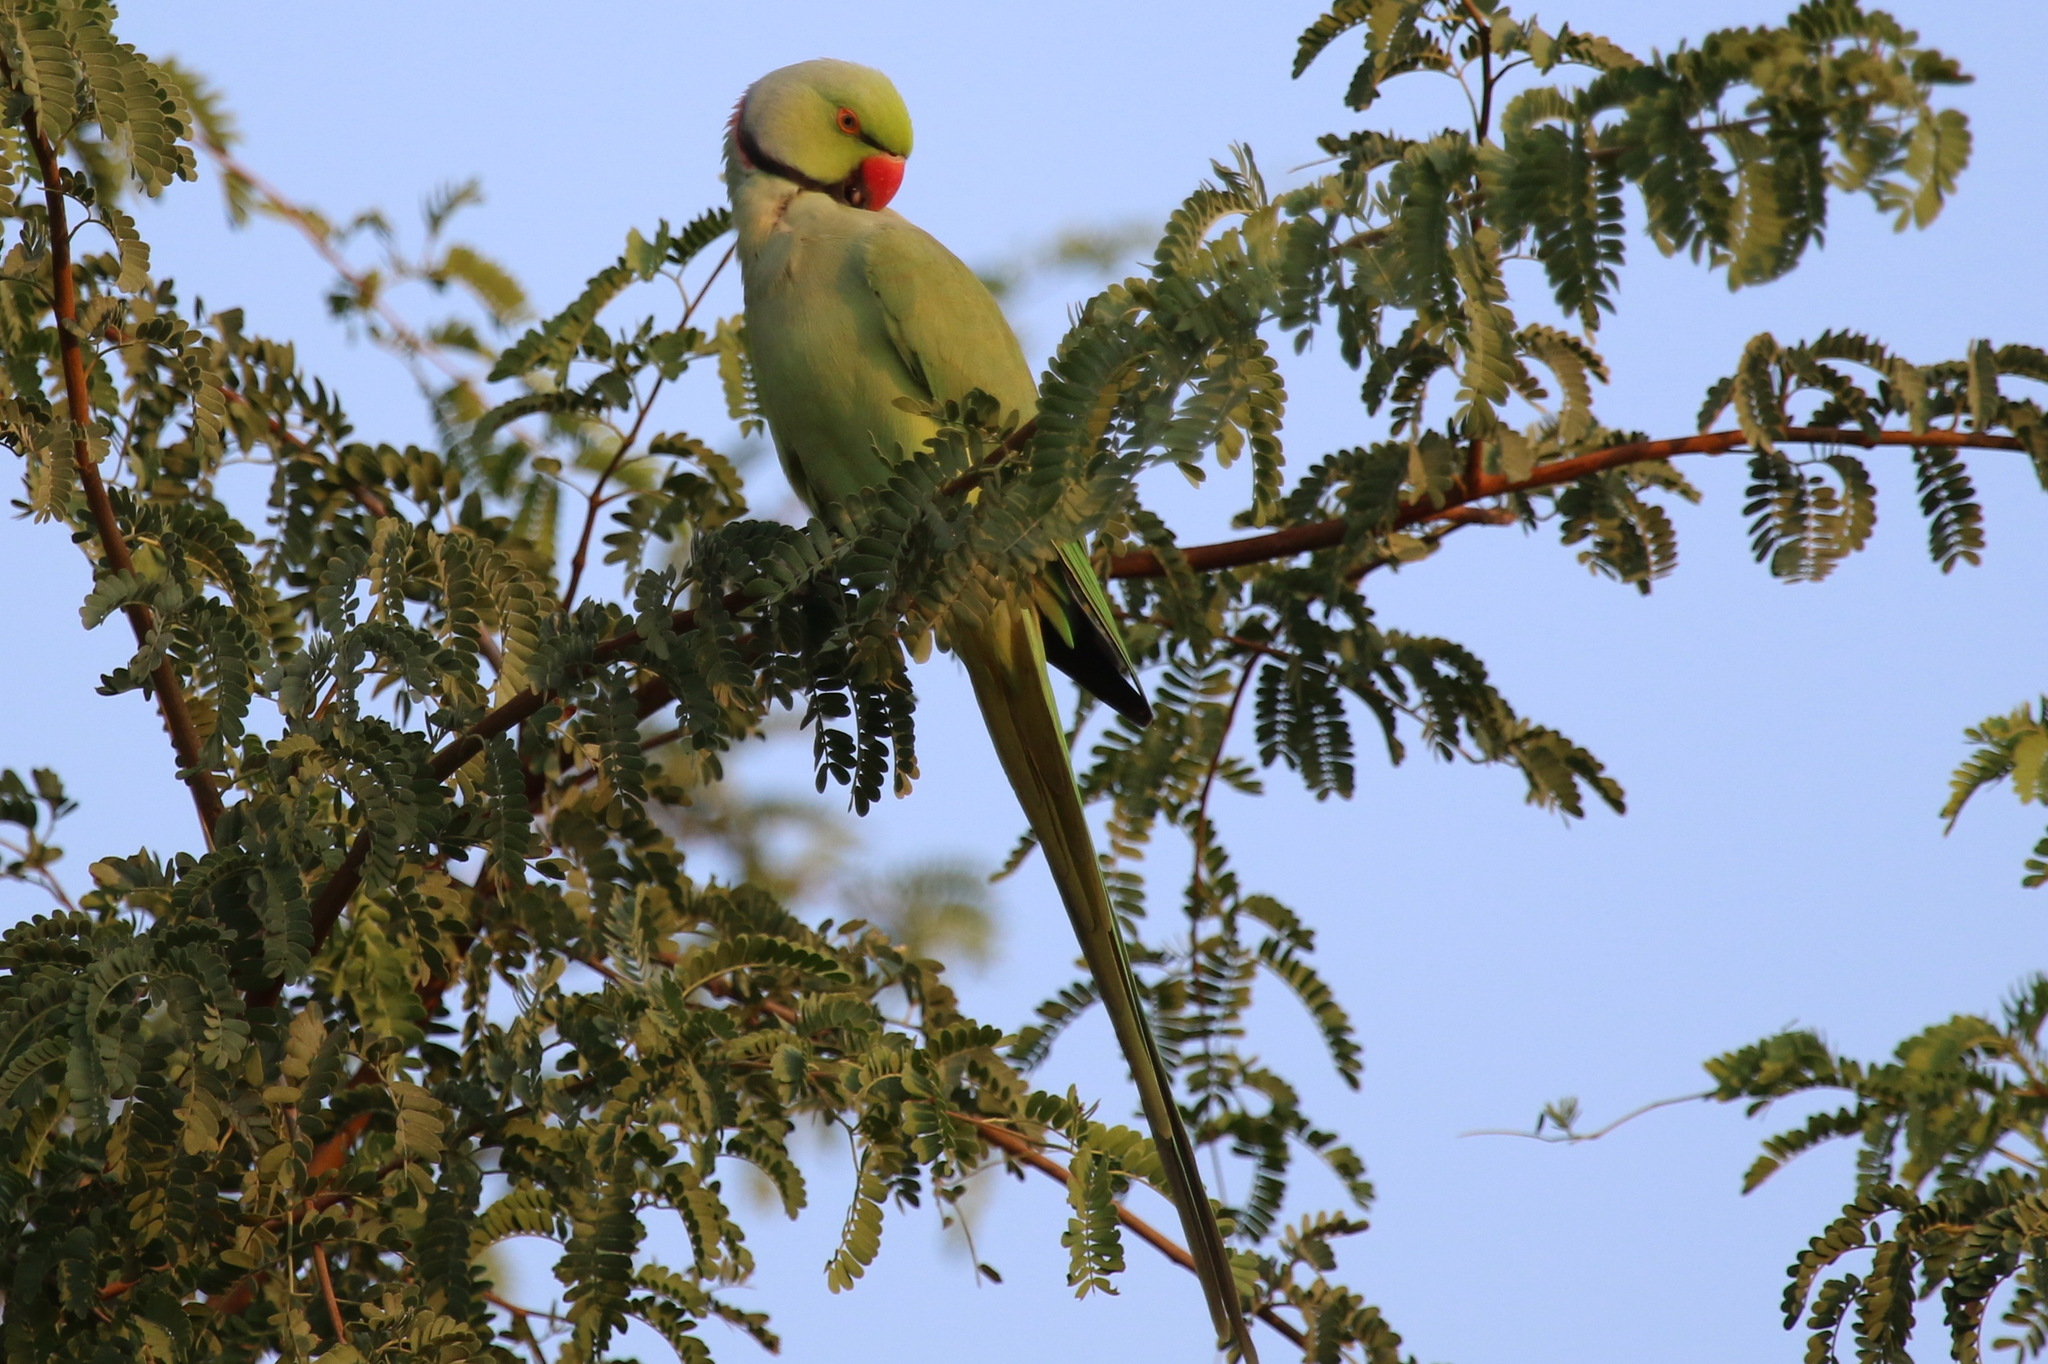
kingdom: Animalia
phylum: Chordata
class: Aves
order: Psittaciformes
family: Psittacidae
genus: Psittacula
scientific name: Psittacula krameri
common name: Rose-ringed parakeet
